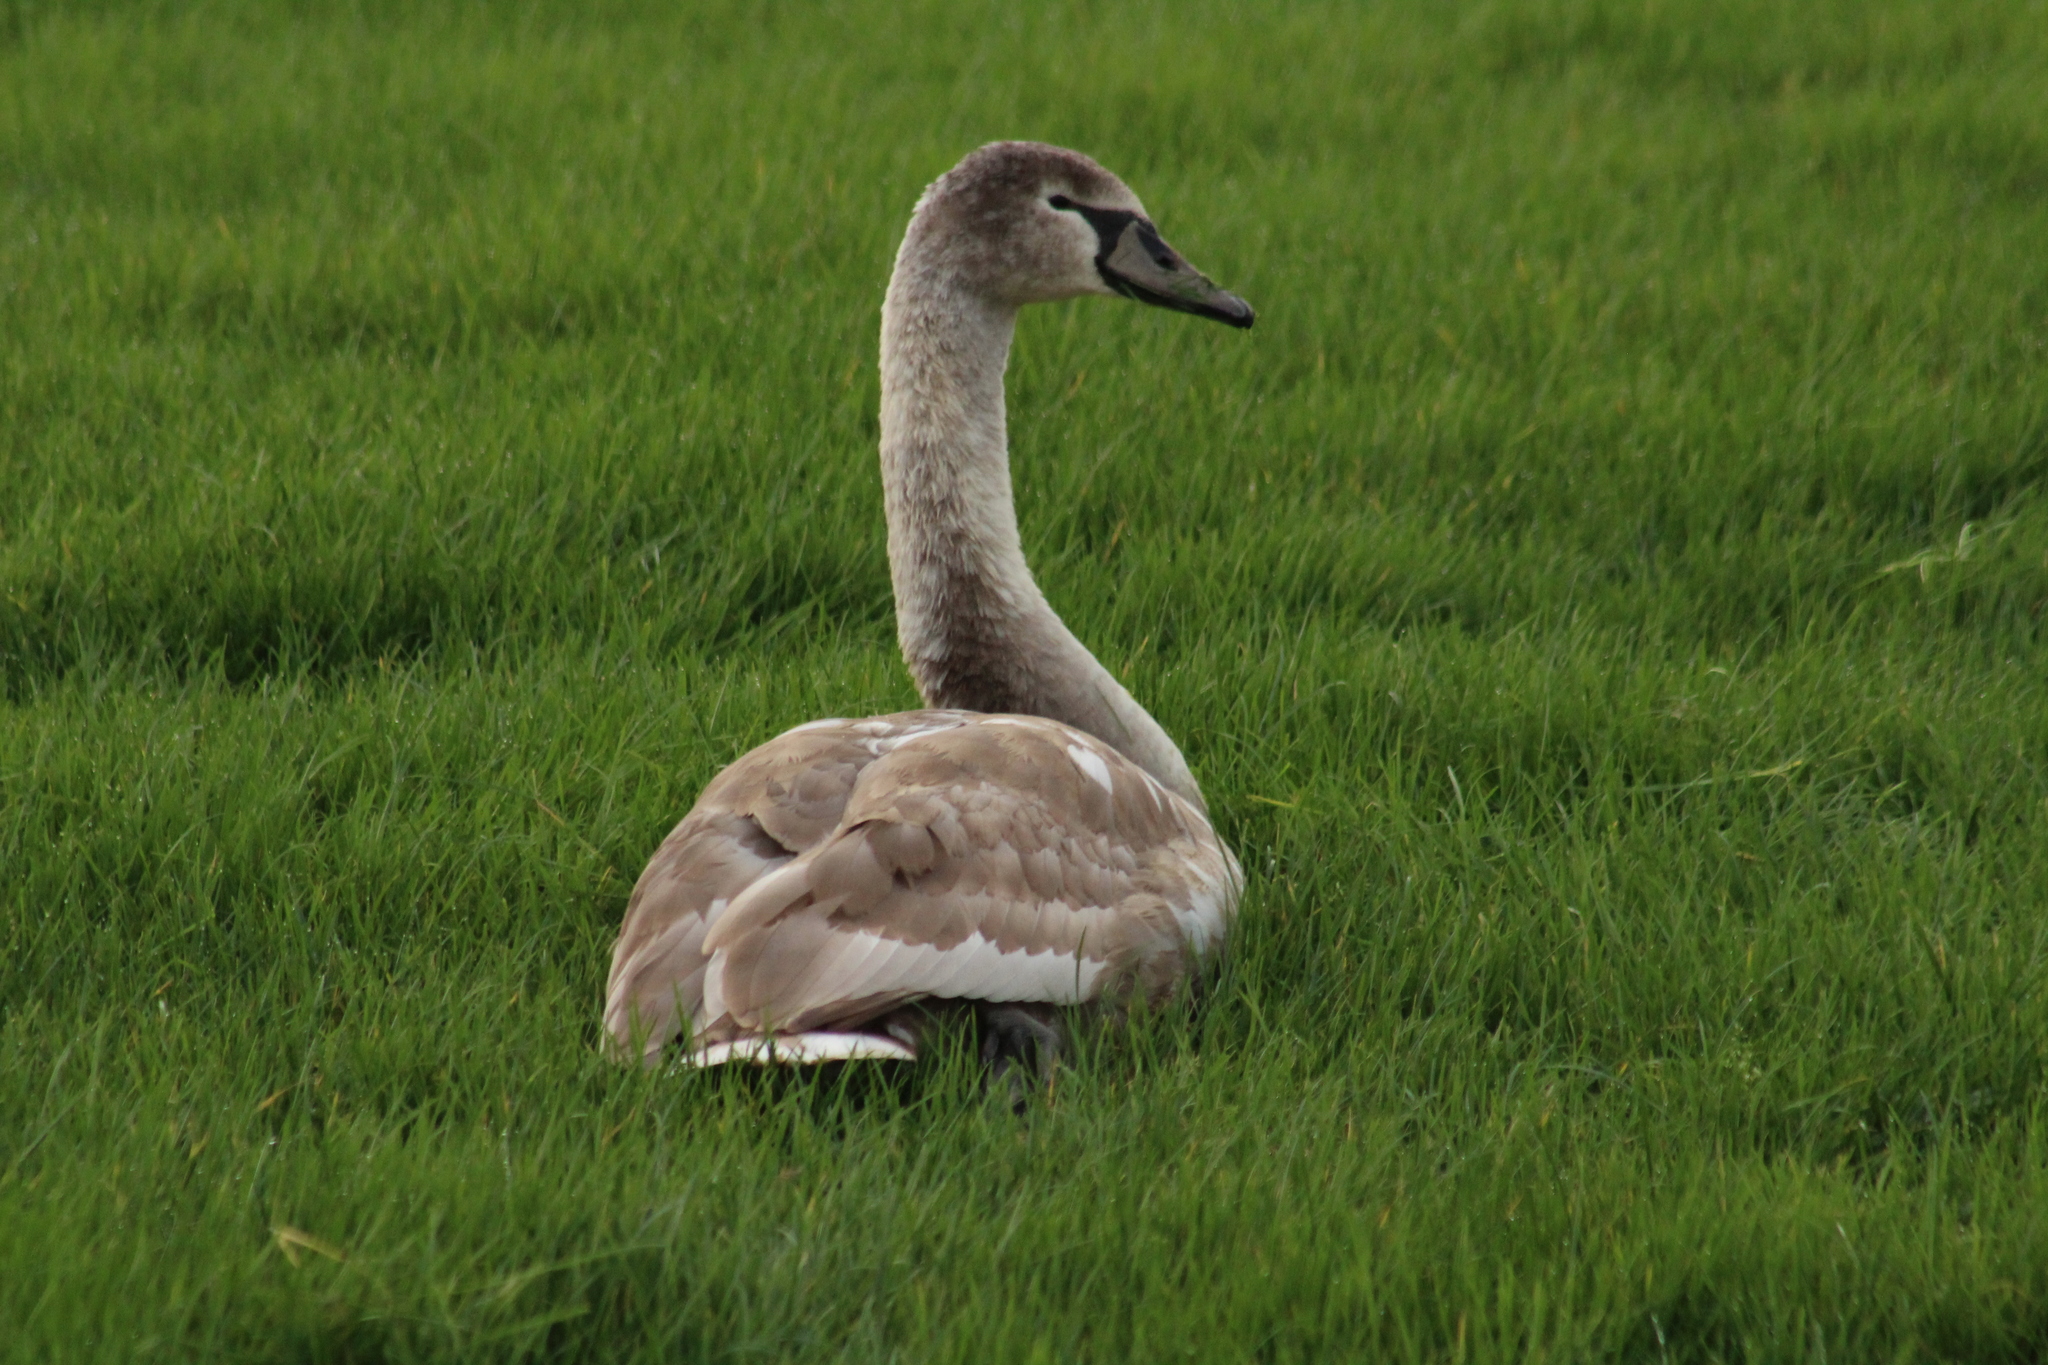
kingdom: Animalia
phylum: Chordata
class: Aves
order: Anseriformes
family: Anatidae
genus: Cygnus
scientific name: Cygnus olor
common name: Mute swan
